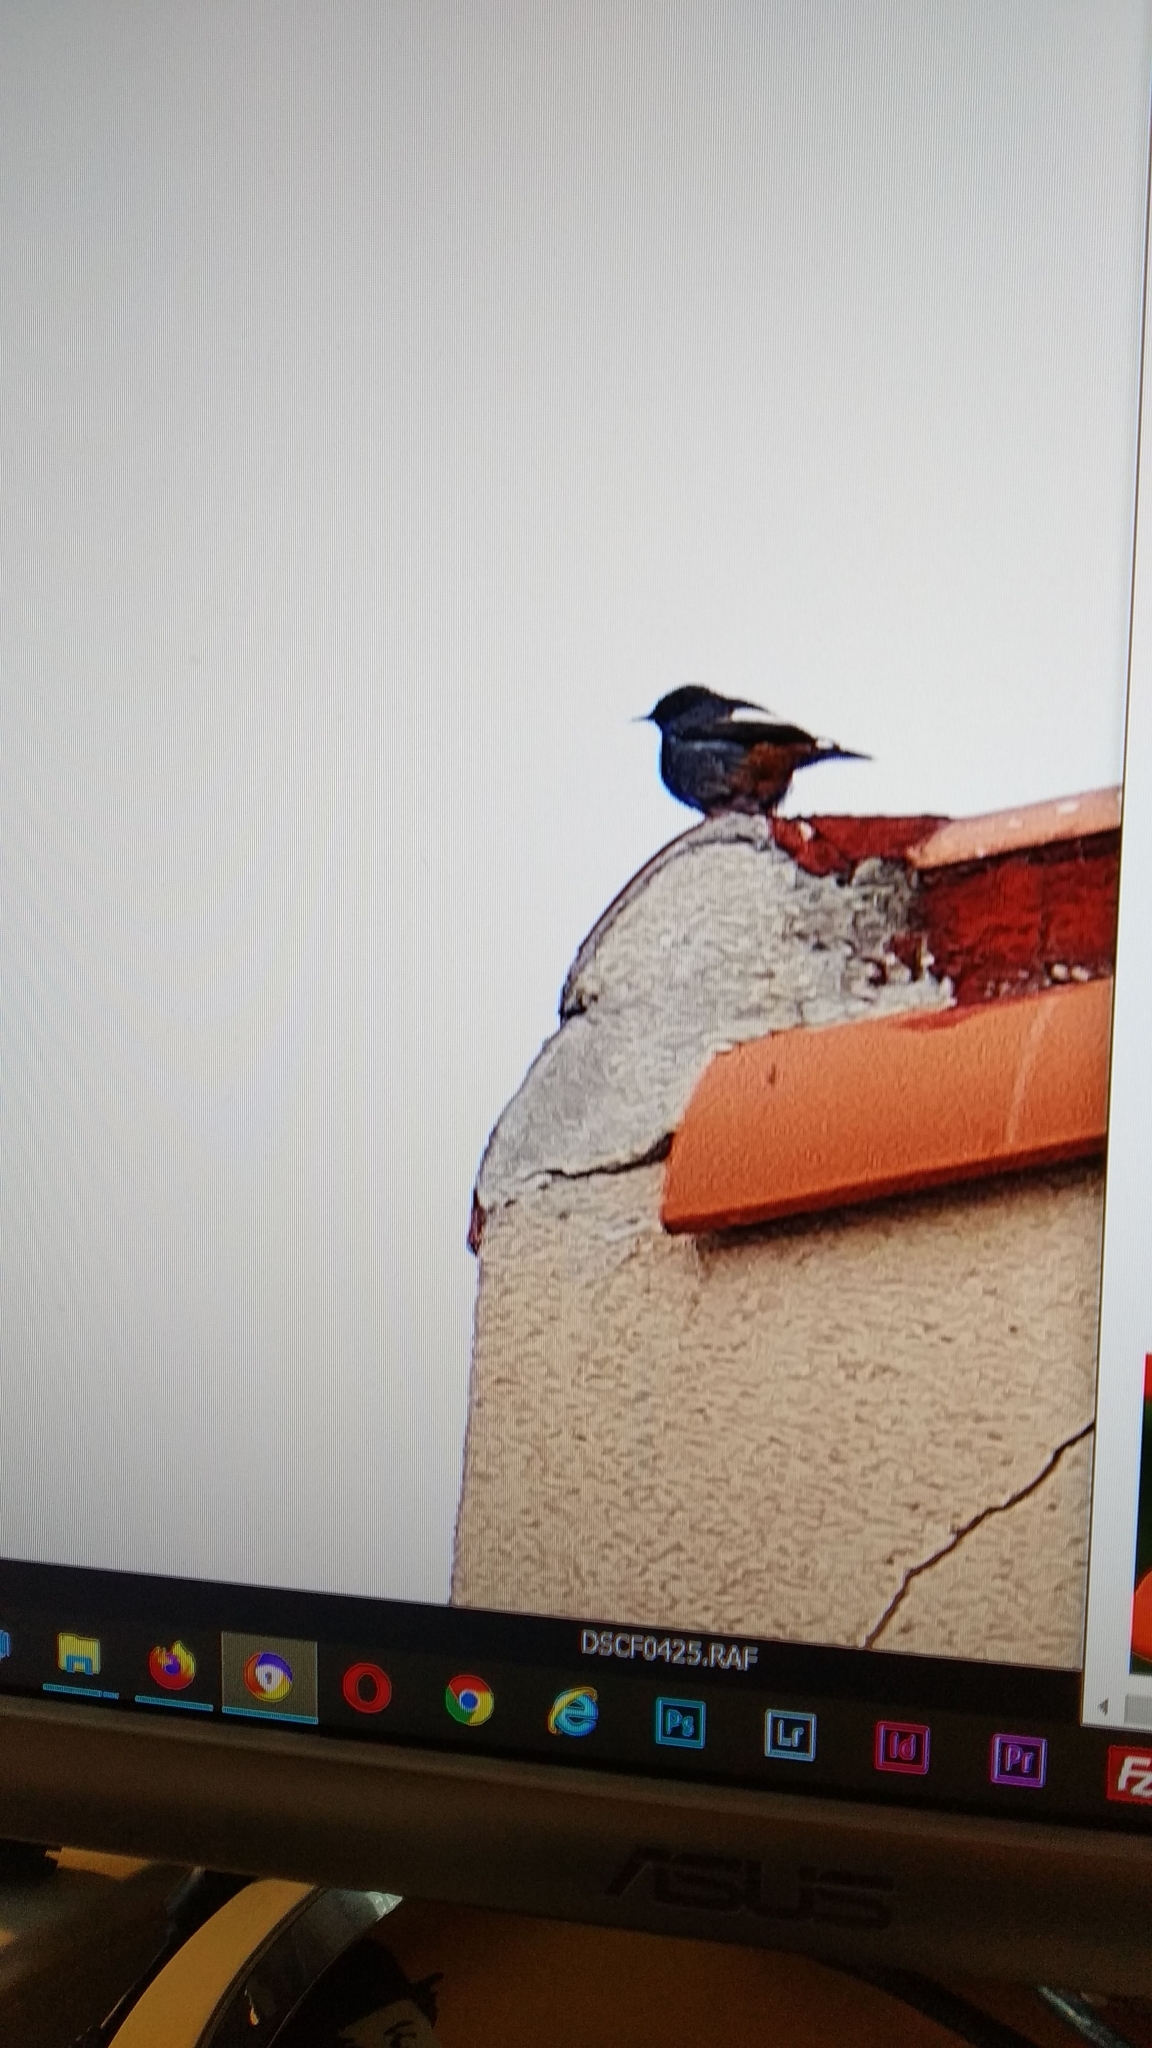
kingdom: Animalia
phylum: Chordata
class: Aves
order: Passeriformes
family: Muscicapidae
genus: Phoenicurus
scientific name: Phoenicurus ochruros
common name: Black redstart
